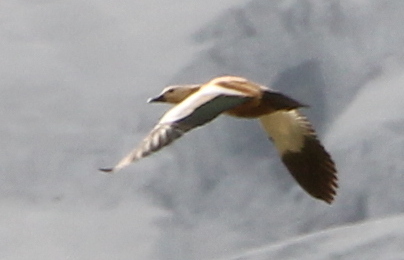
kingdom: Animalia
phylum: Chordata
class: Aves
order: Anseriformes
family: Anatidae
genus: Tadorna
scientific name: Tadorna ferruginea
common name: Ruddy shelduck
